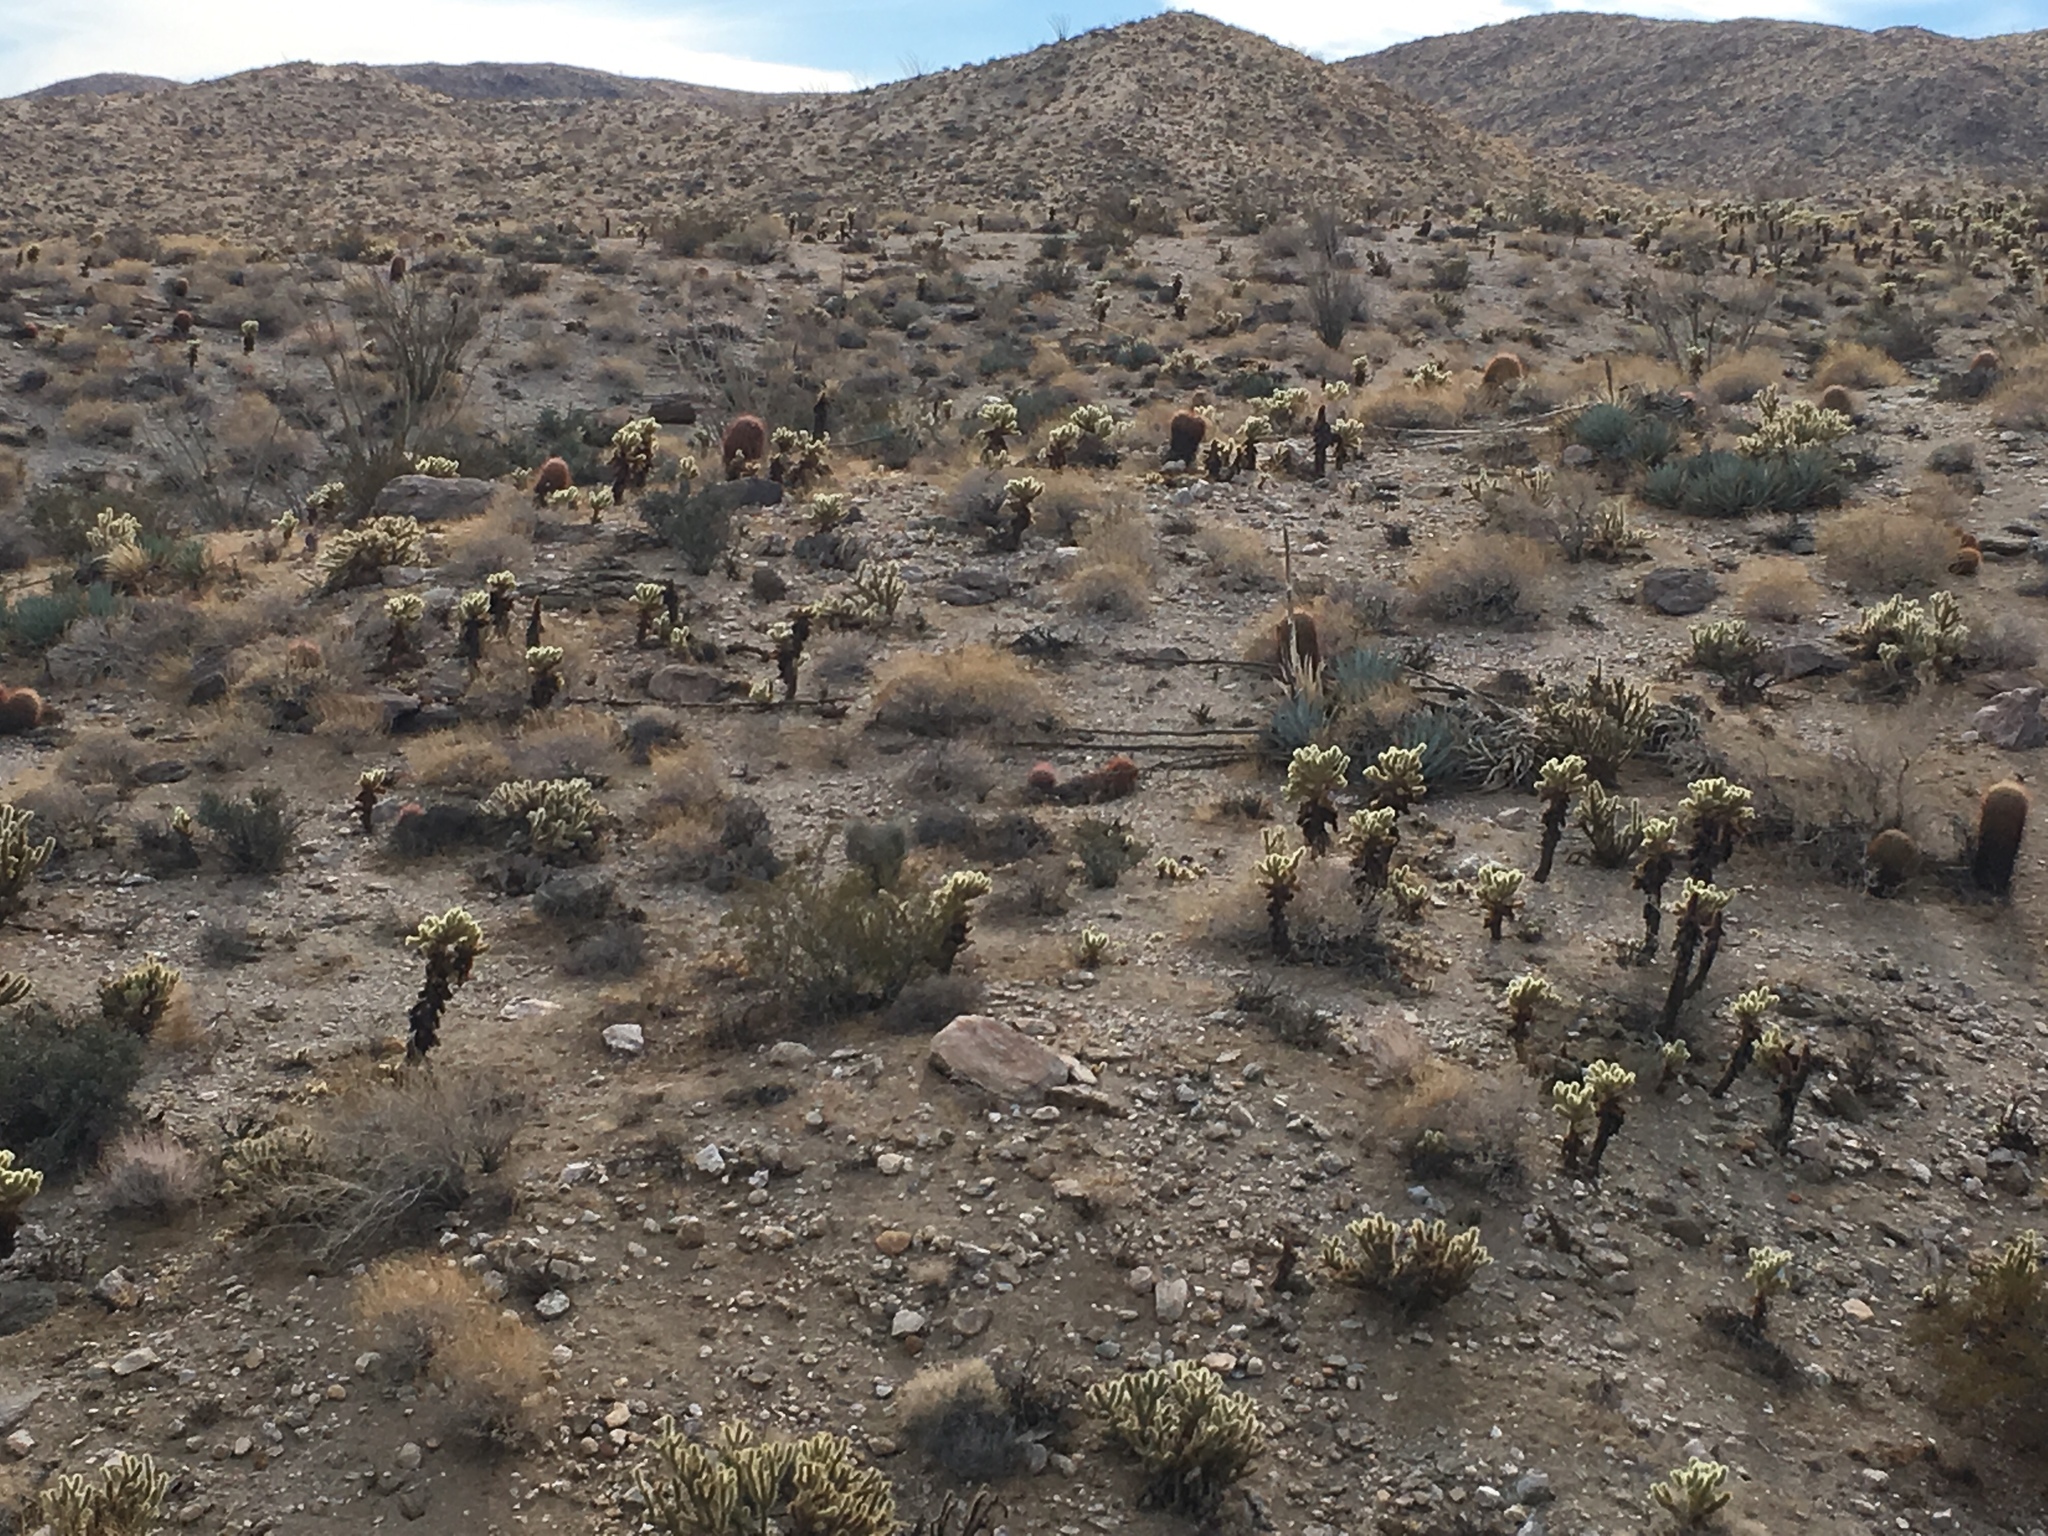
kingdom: Plantae
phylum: Tracheophyta
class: Magnoliopsida
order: Caryophyllales
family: Cactaceae
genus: Cylindropuntia
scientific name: Cylindropuntia fosbergii
